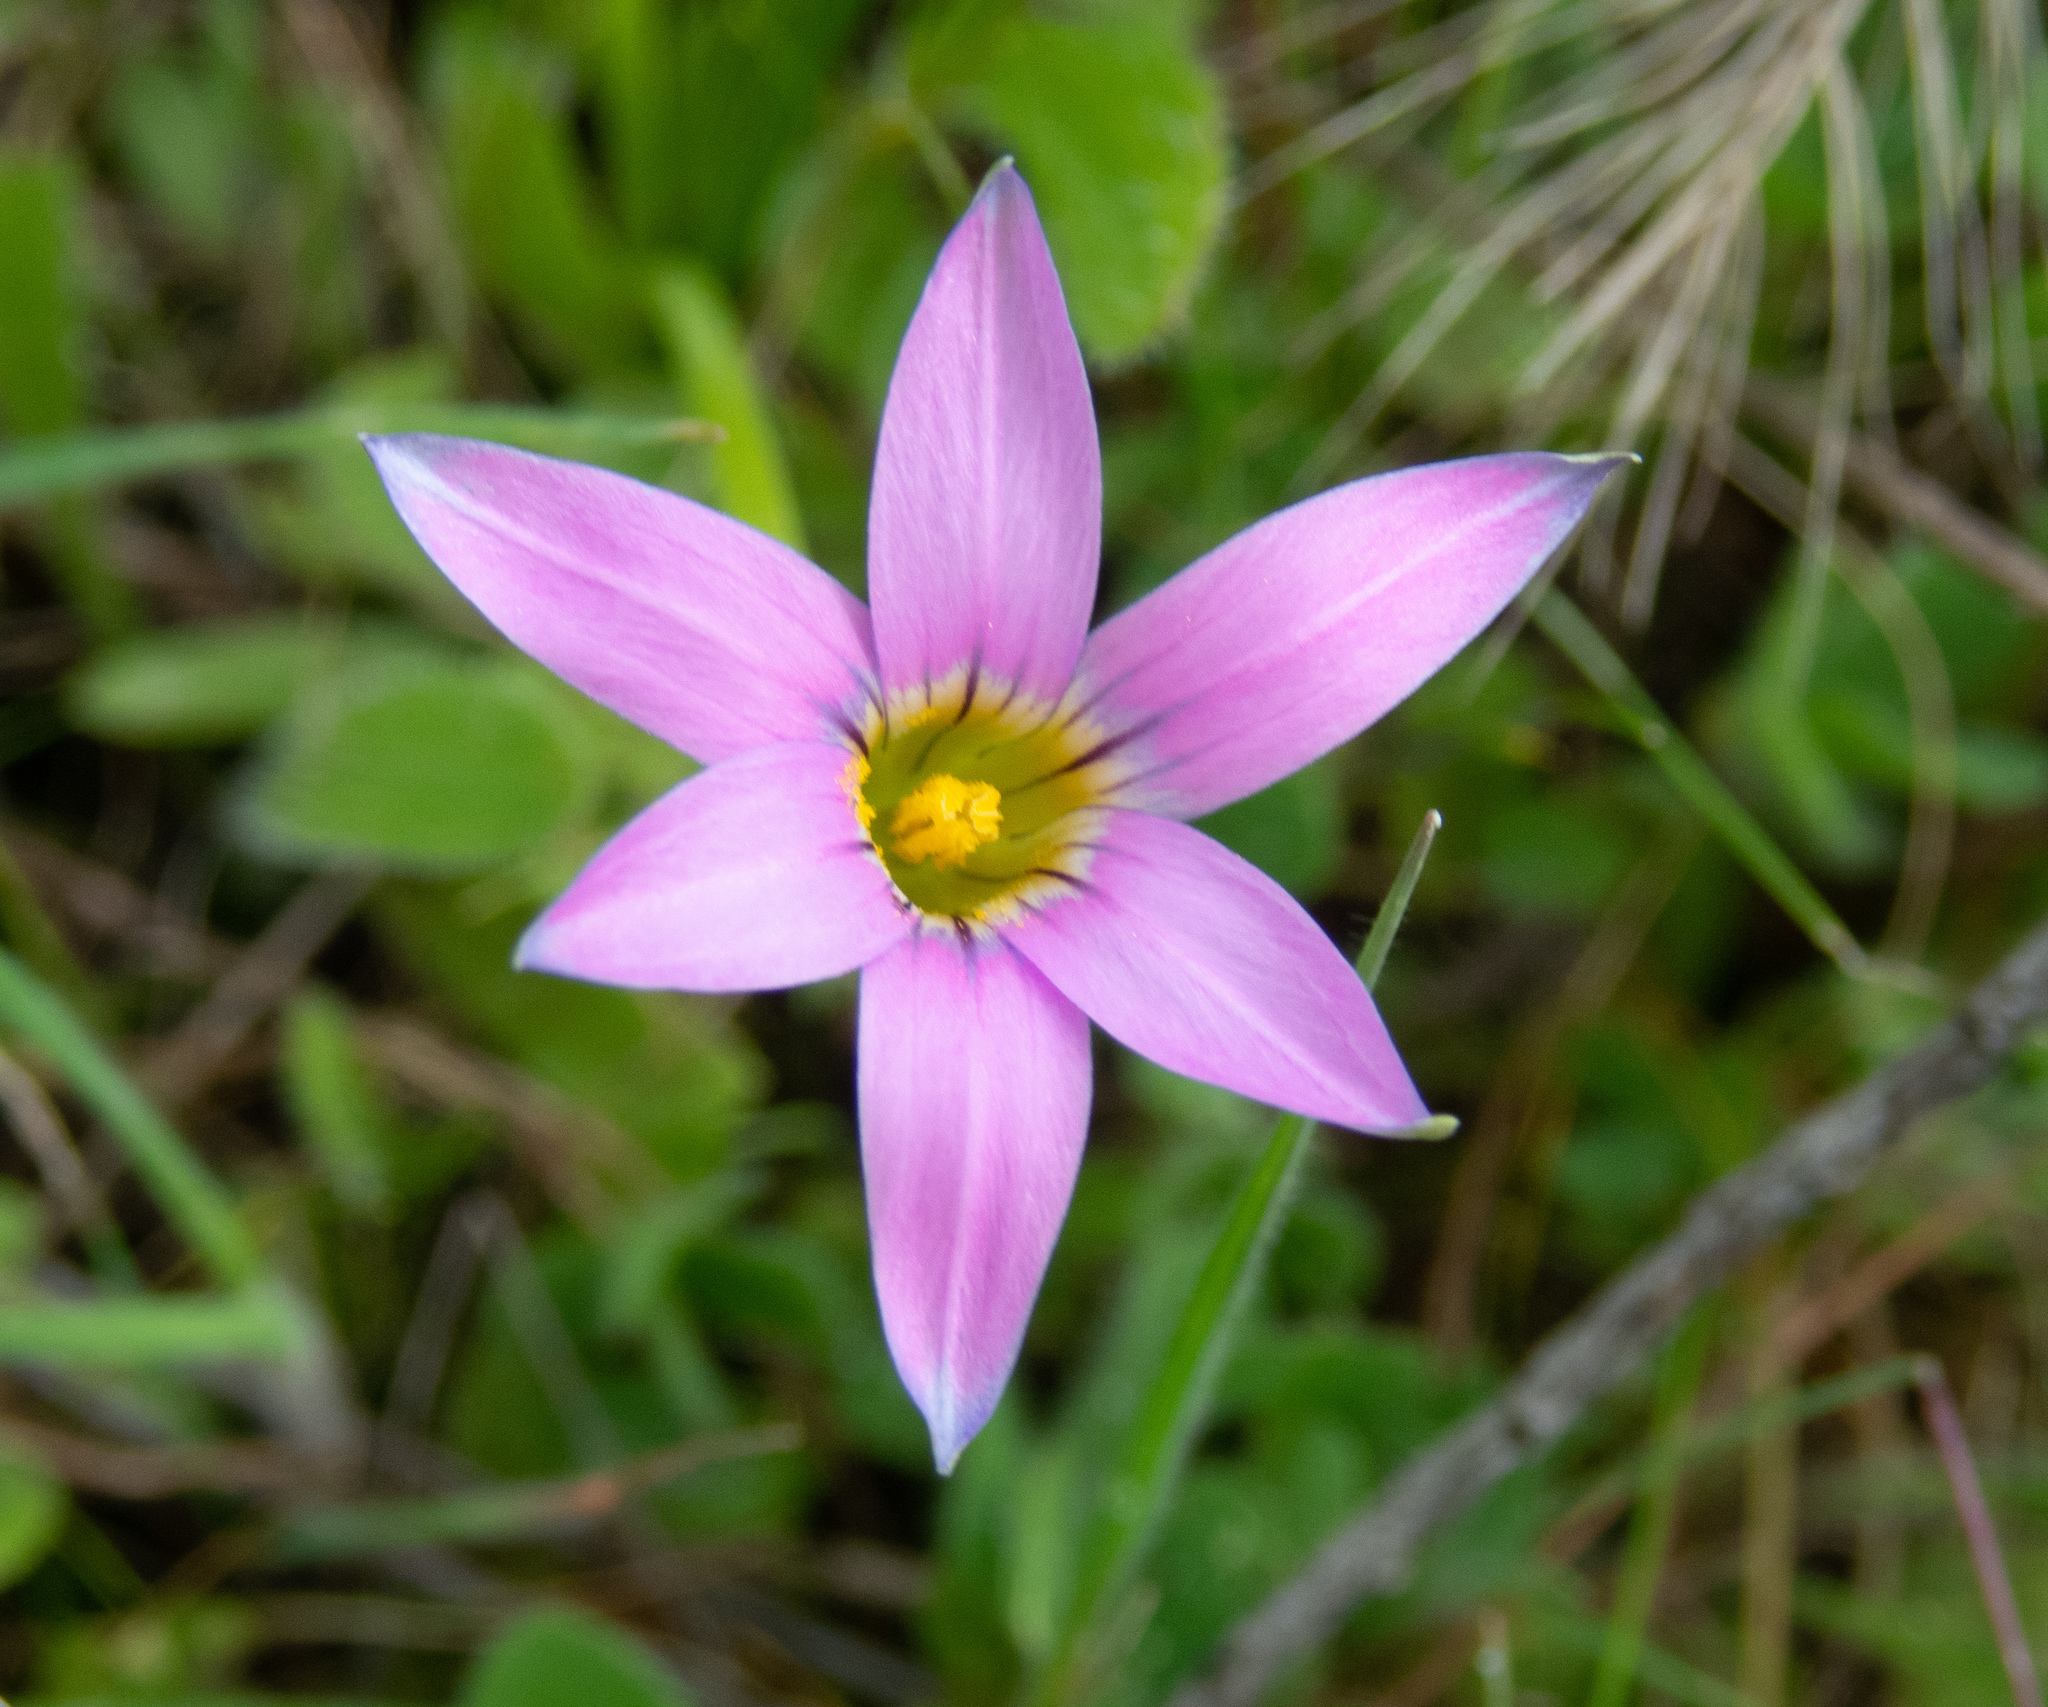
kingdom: Plantae
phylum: Tracheophyta
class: Liliopsida
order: Asparagales
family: Iridaceae
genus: Romulea
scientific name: Romulea rosea
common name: Oniongrass
